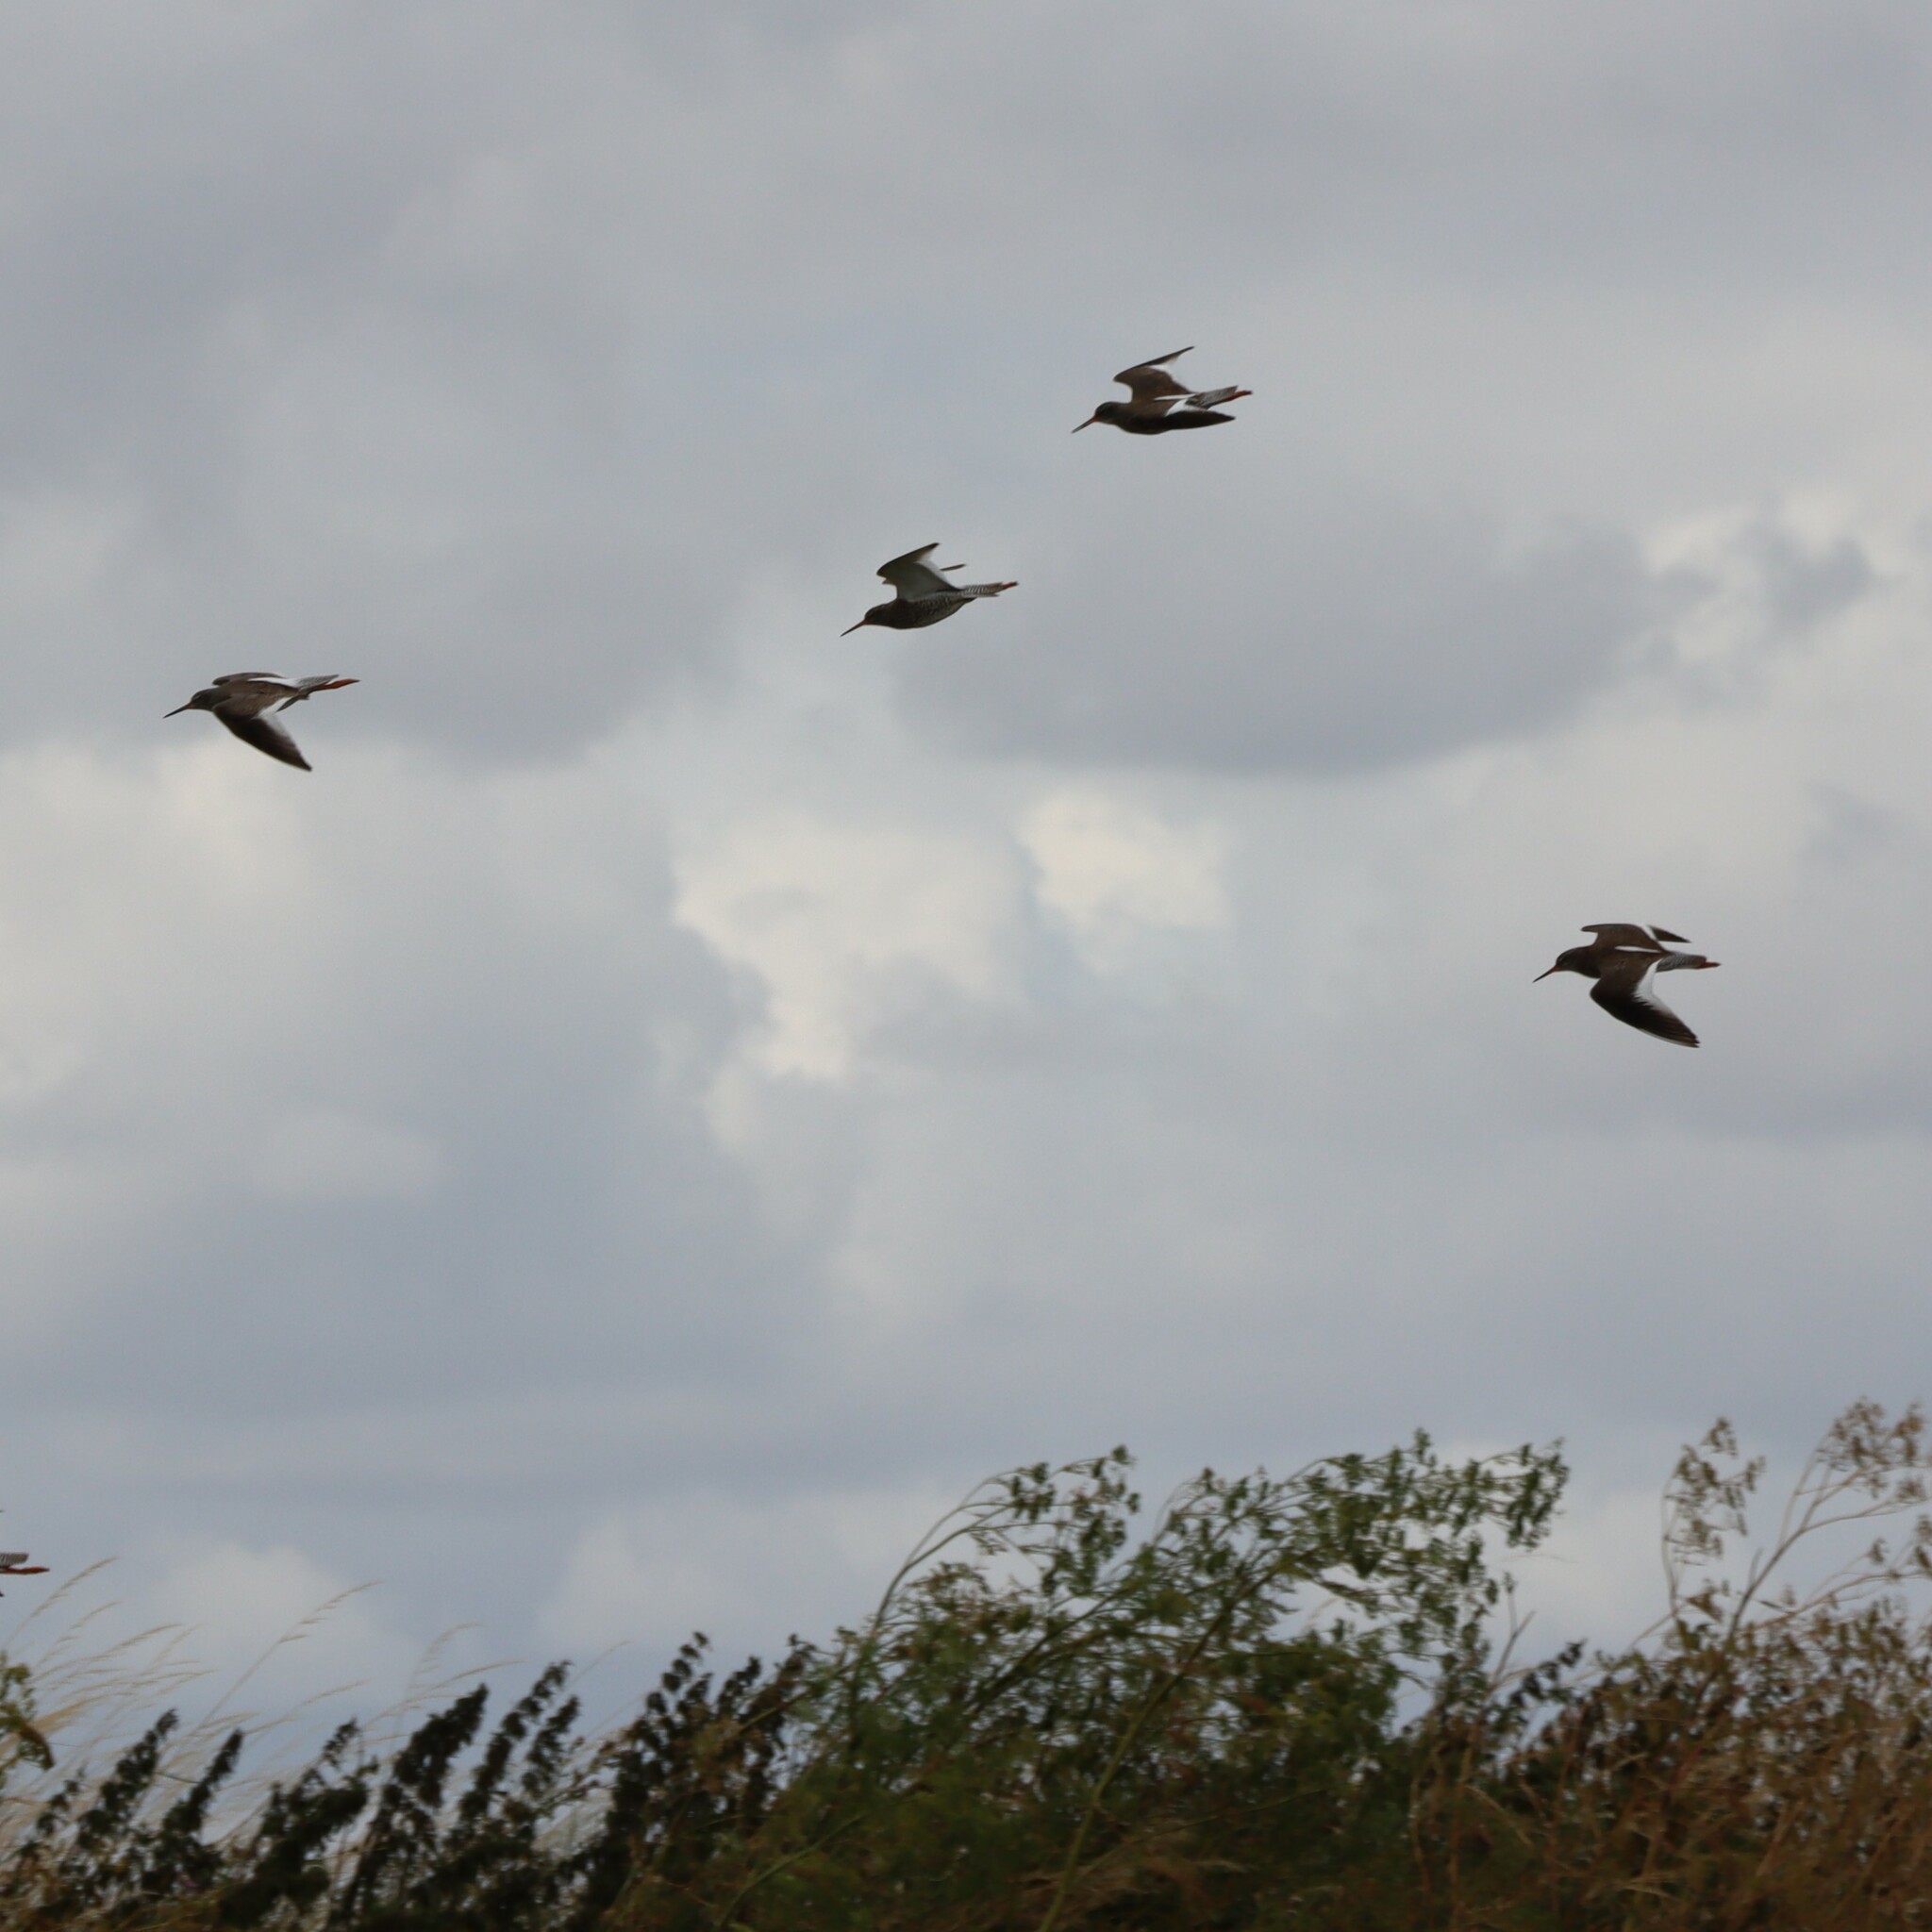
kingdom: Animalia
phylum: Chordata
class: Aves
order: Charadriiformes
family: Scolopacidae
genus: Tringa
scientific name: Tringa totanus
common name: Common redshank
